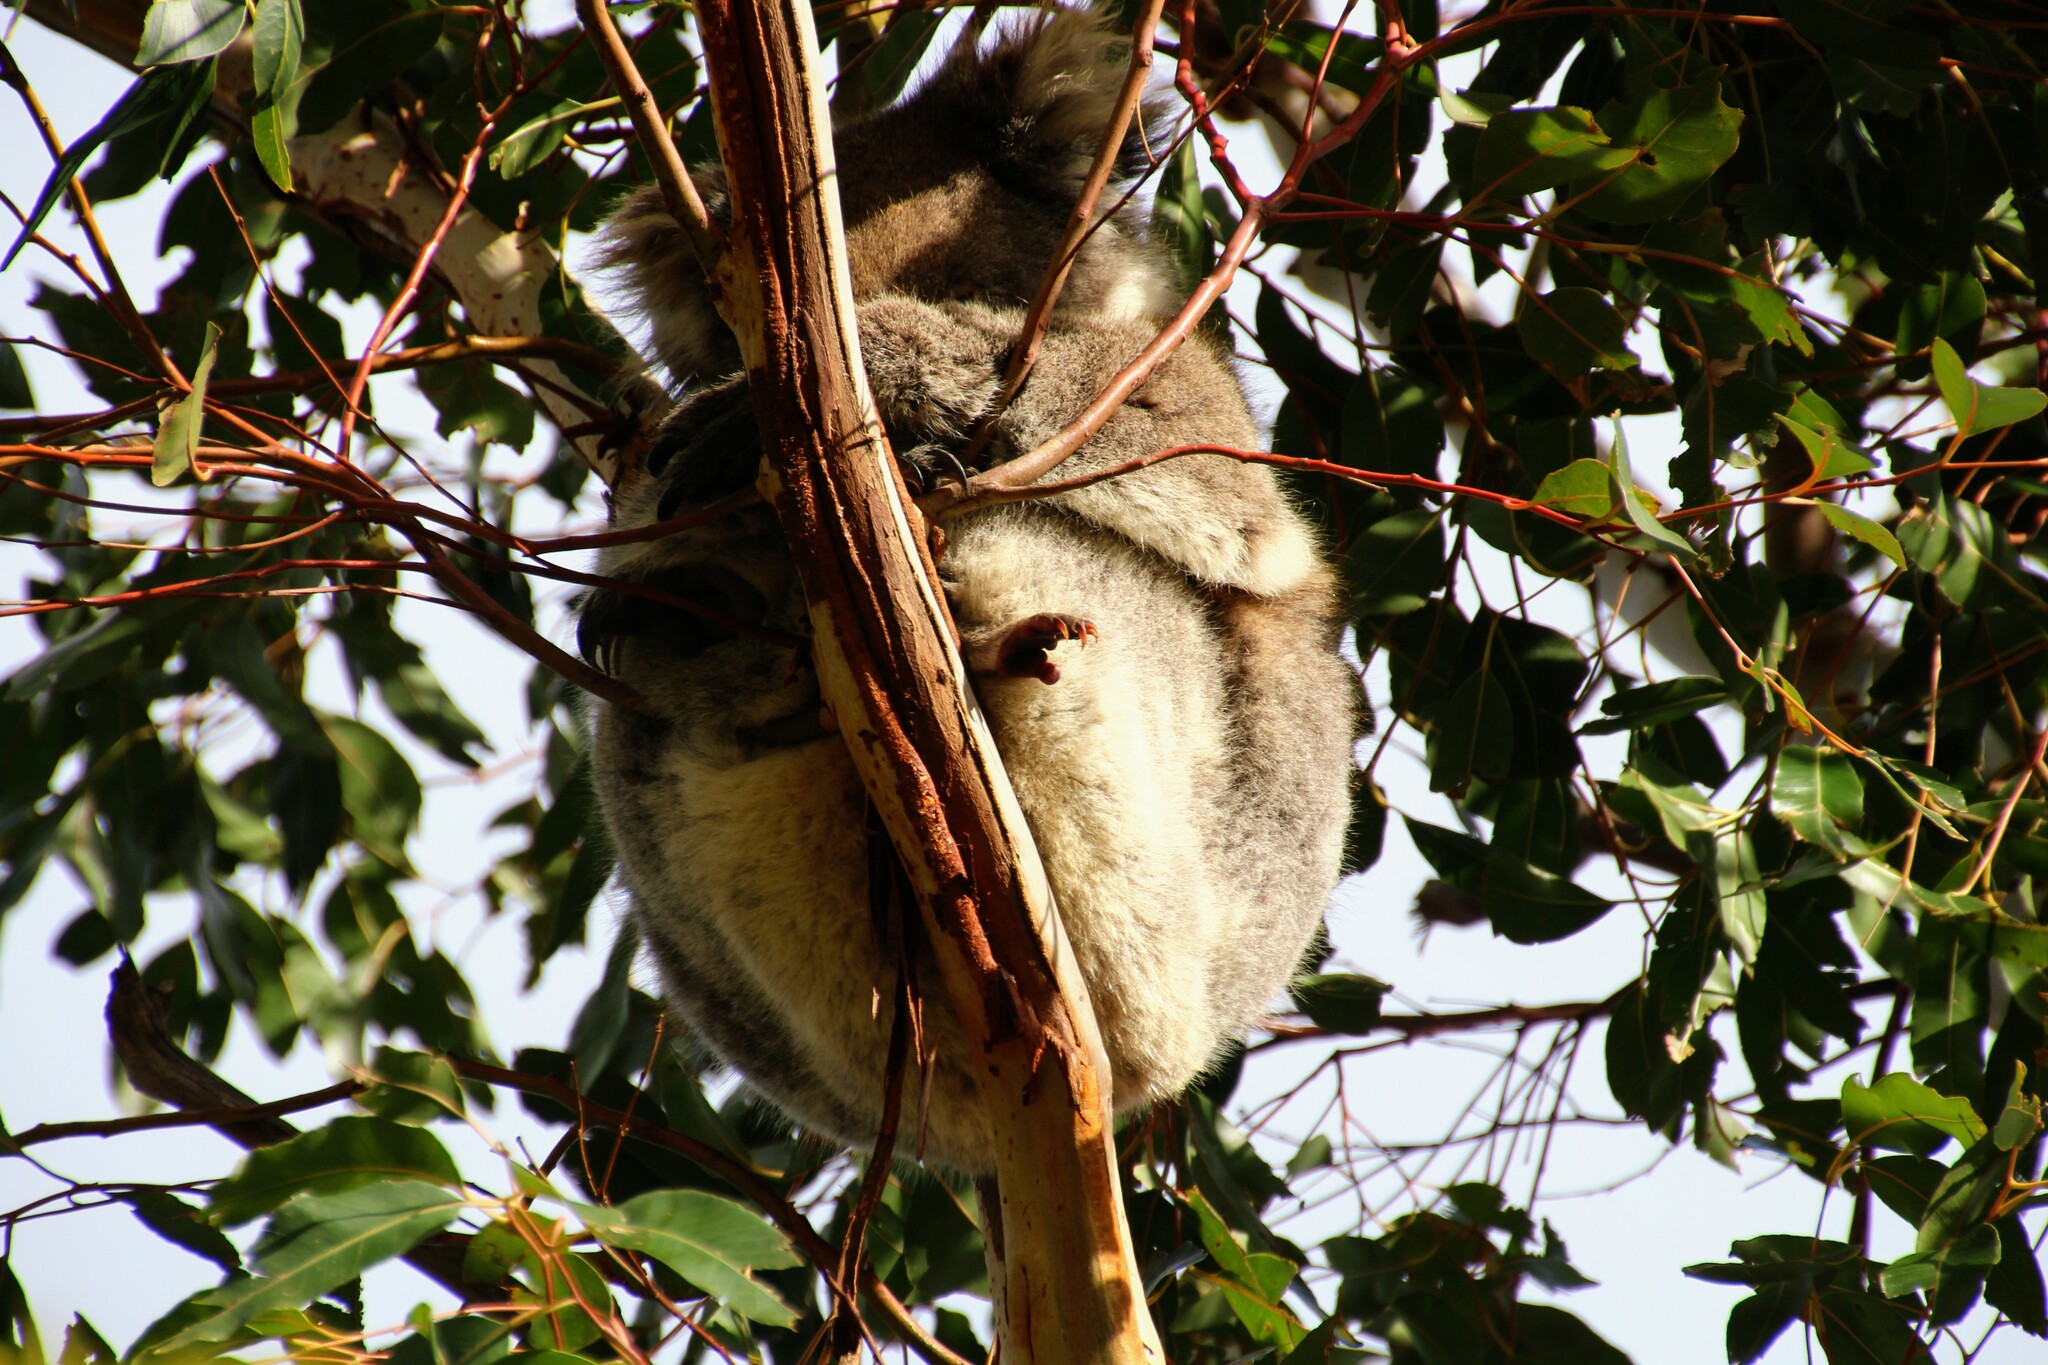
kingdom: Animalia
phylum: Chordata
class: Mammalia
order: Diprotodontia
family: Phascolarctidae
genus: Phascolarctos
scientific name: Phascolarctos cinereus
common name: Koala
